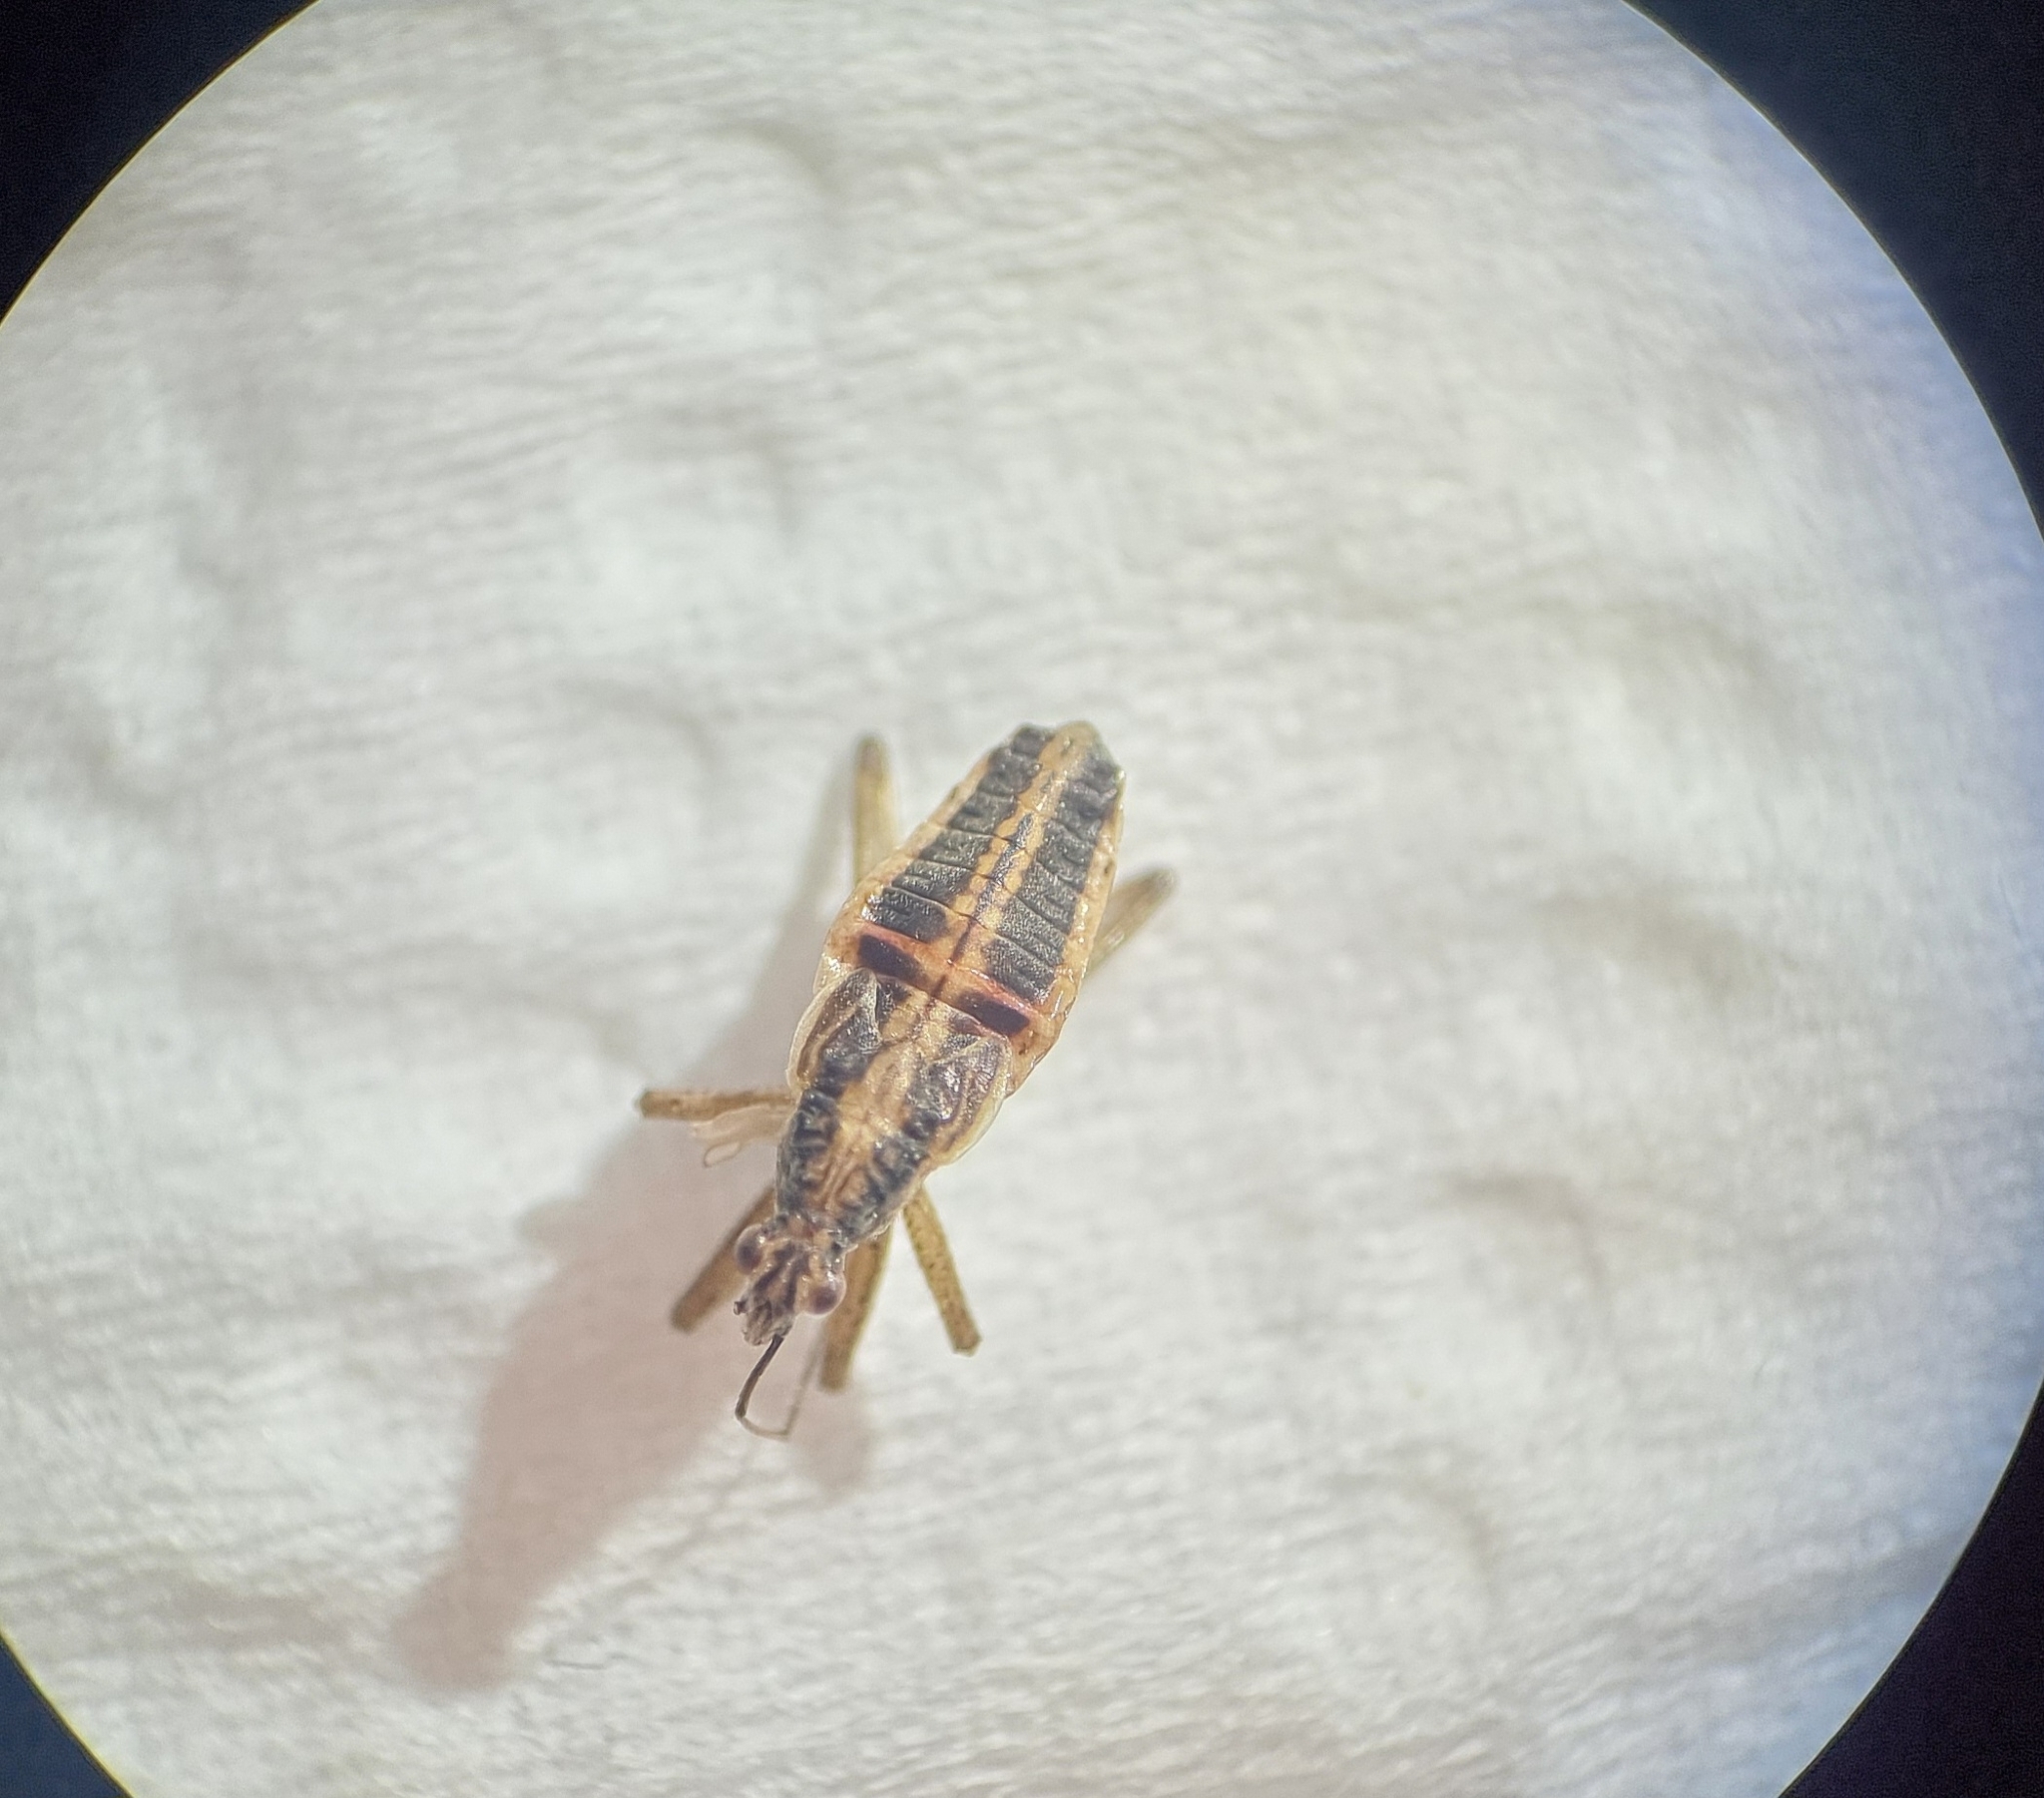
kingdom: Animalia
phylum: Arthropoda
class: Insecta
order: Hemiptera
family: Nabidae
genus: Nabis
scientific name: Nabis flavomarginatus
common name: Broad damselbug
